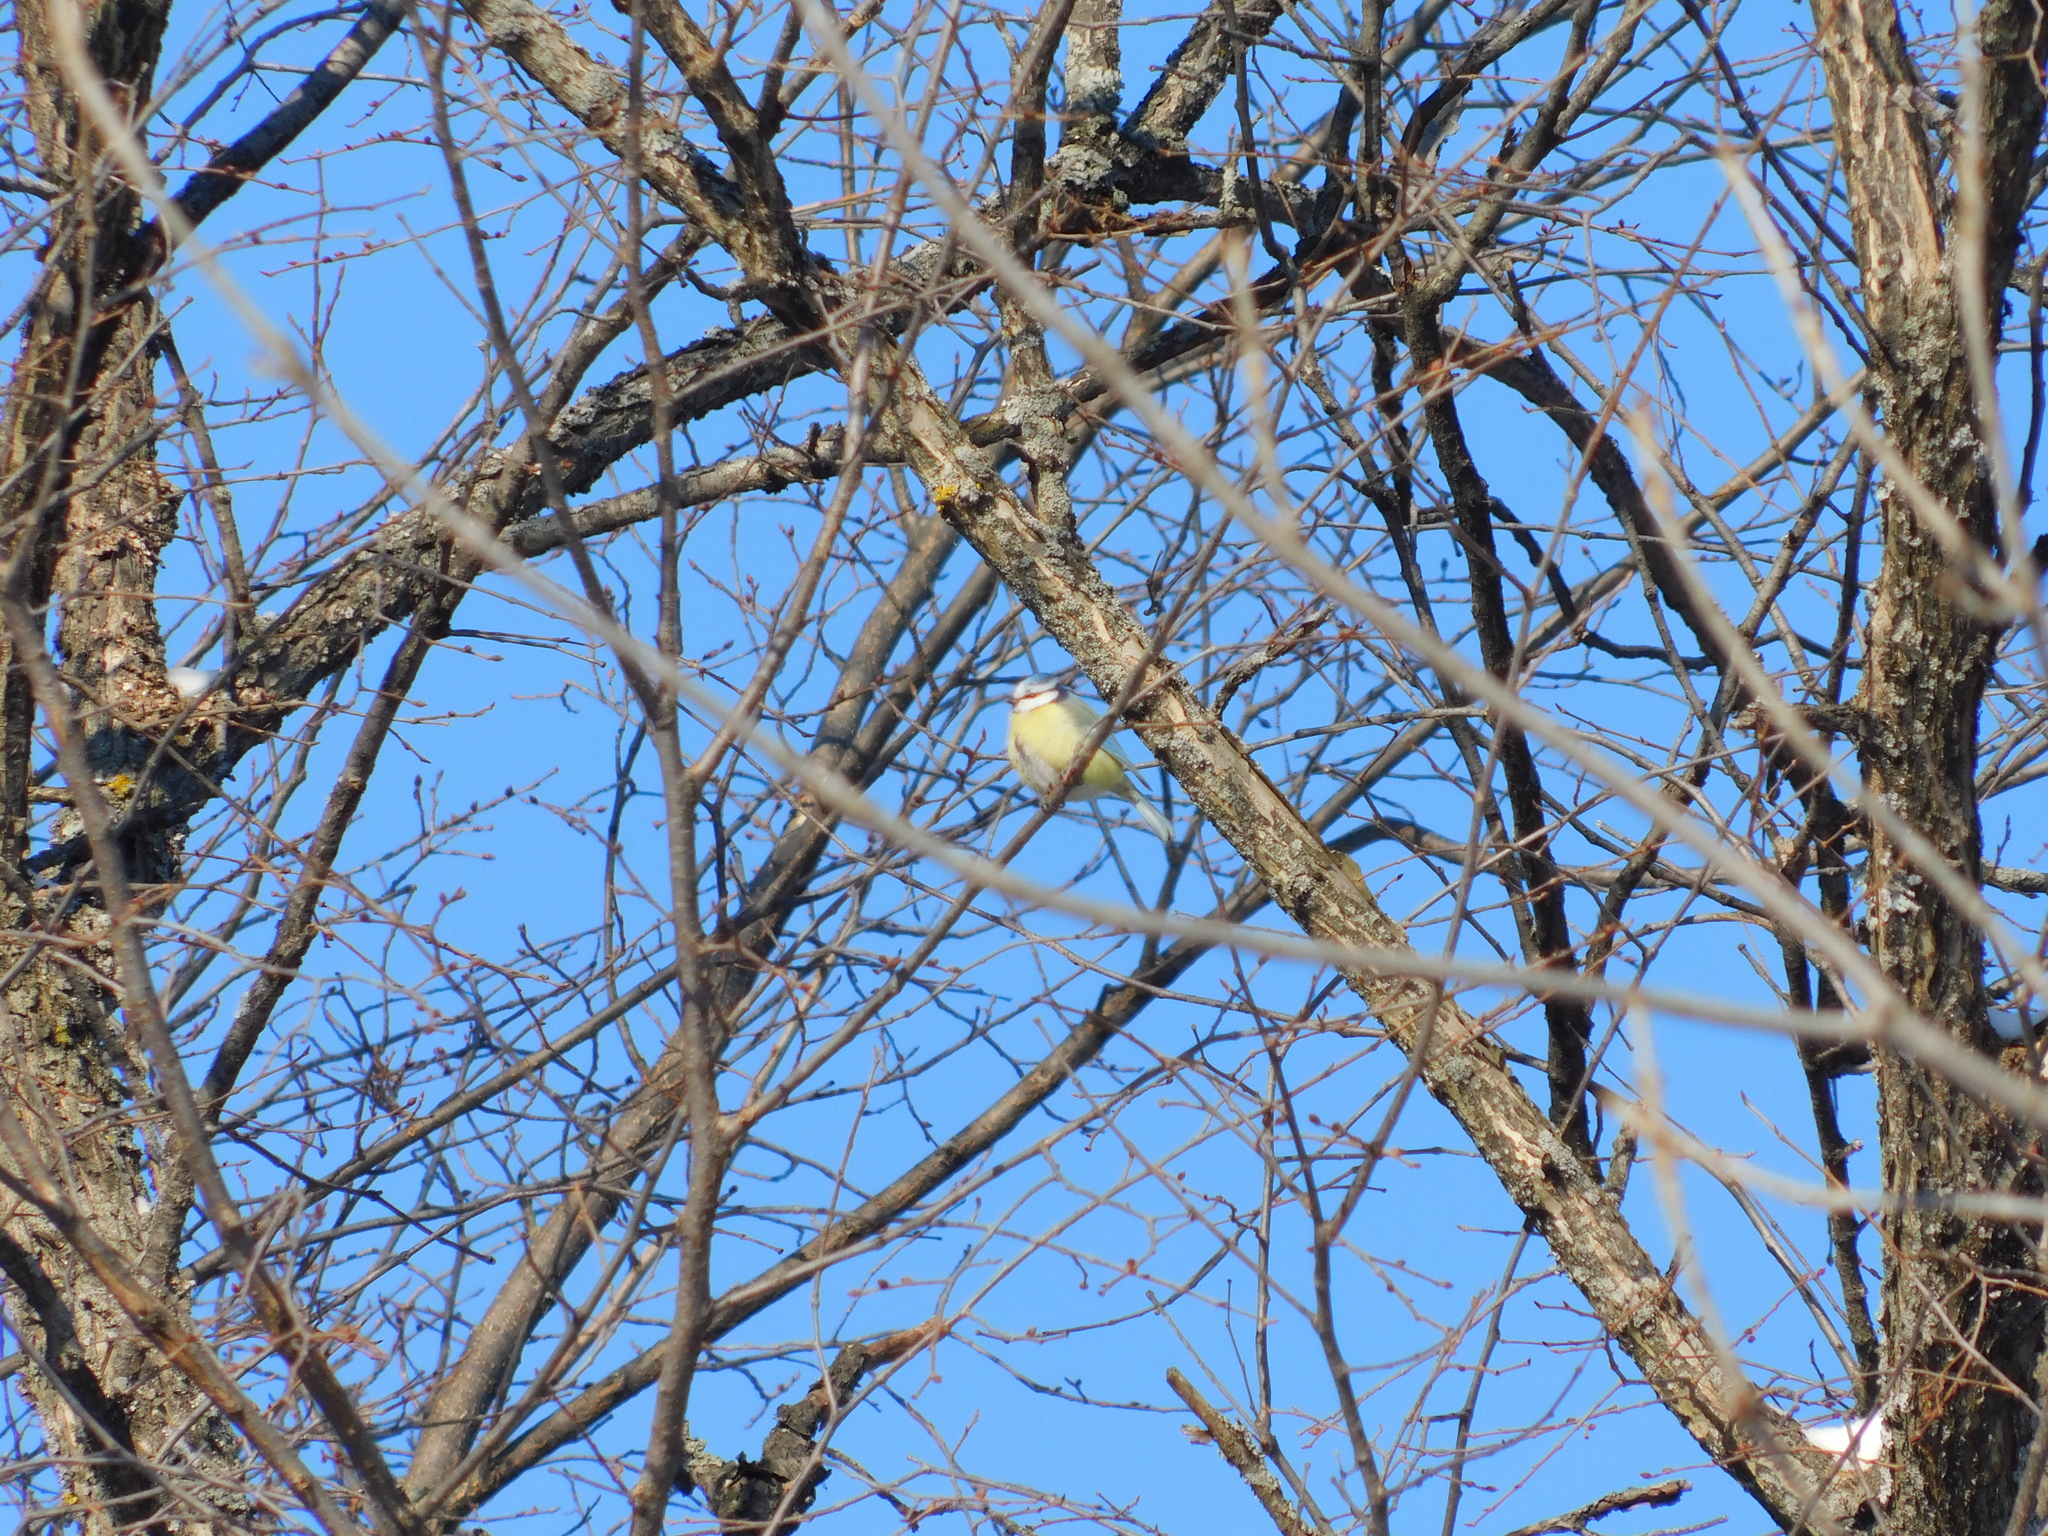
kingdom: Animalia
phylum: Chordata
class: Aves
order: Passeriformes
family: Paridae
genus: Cyanistes
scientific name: Cyanistes caeruleus
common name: Eurasian blue tit
